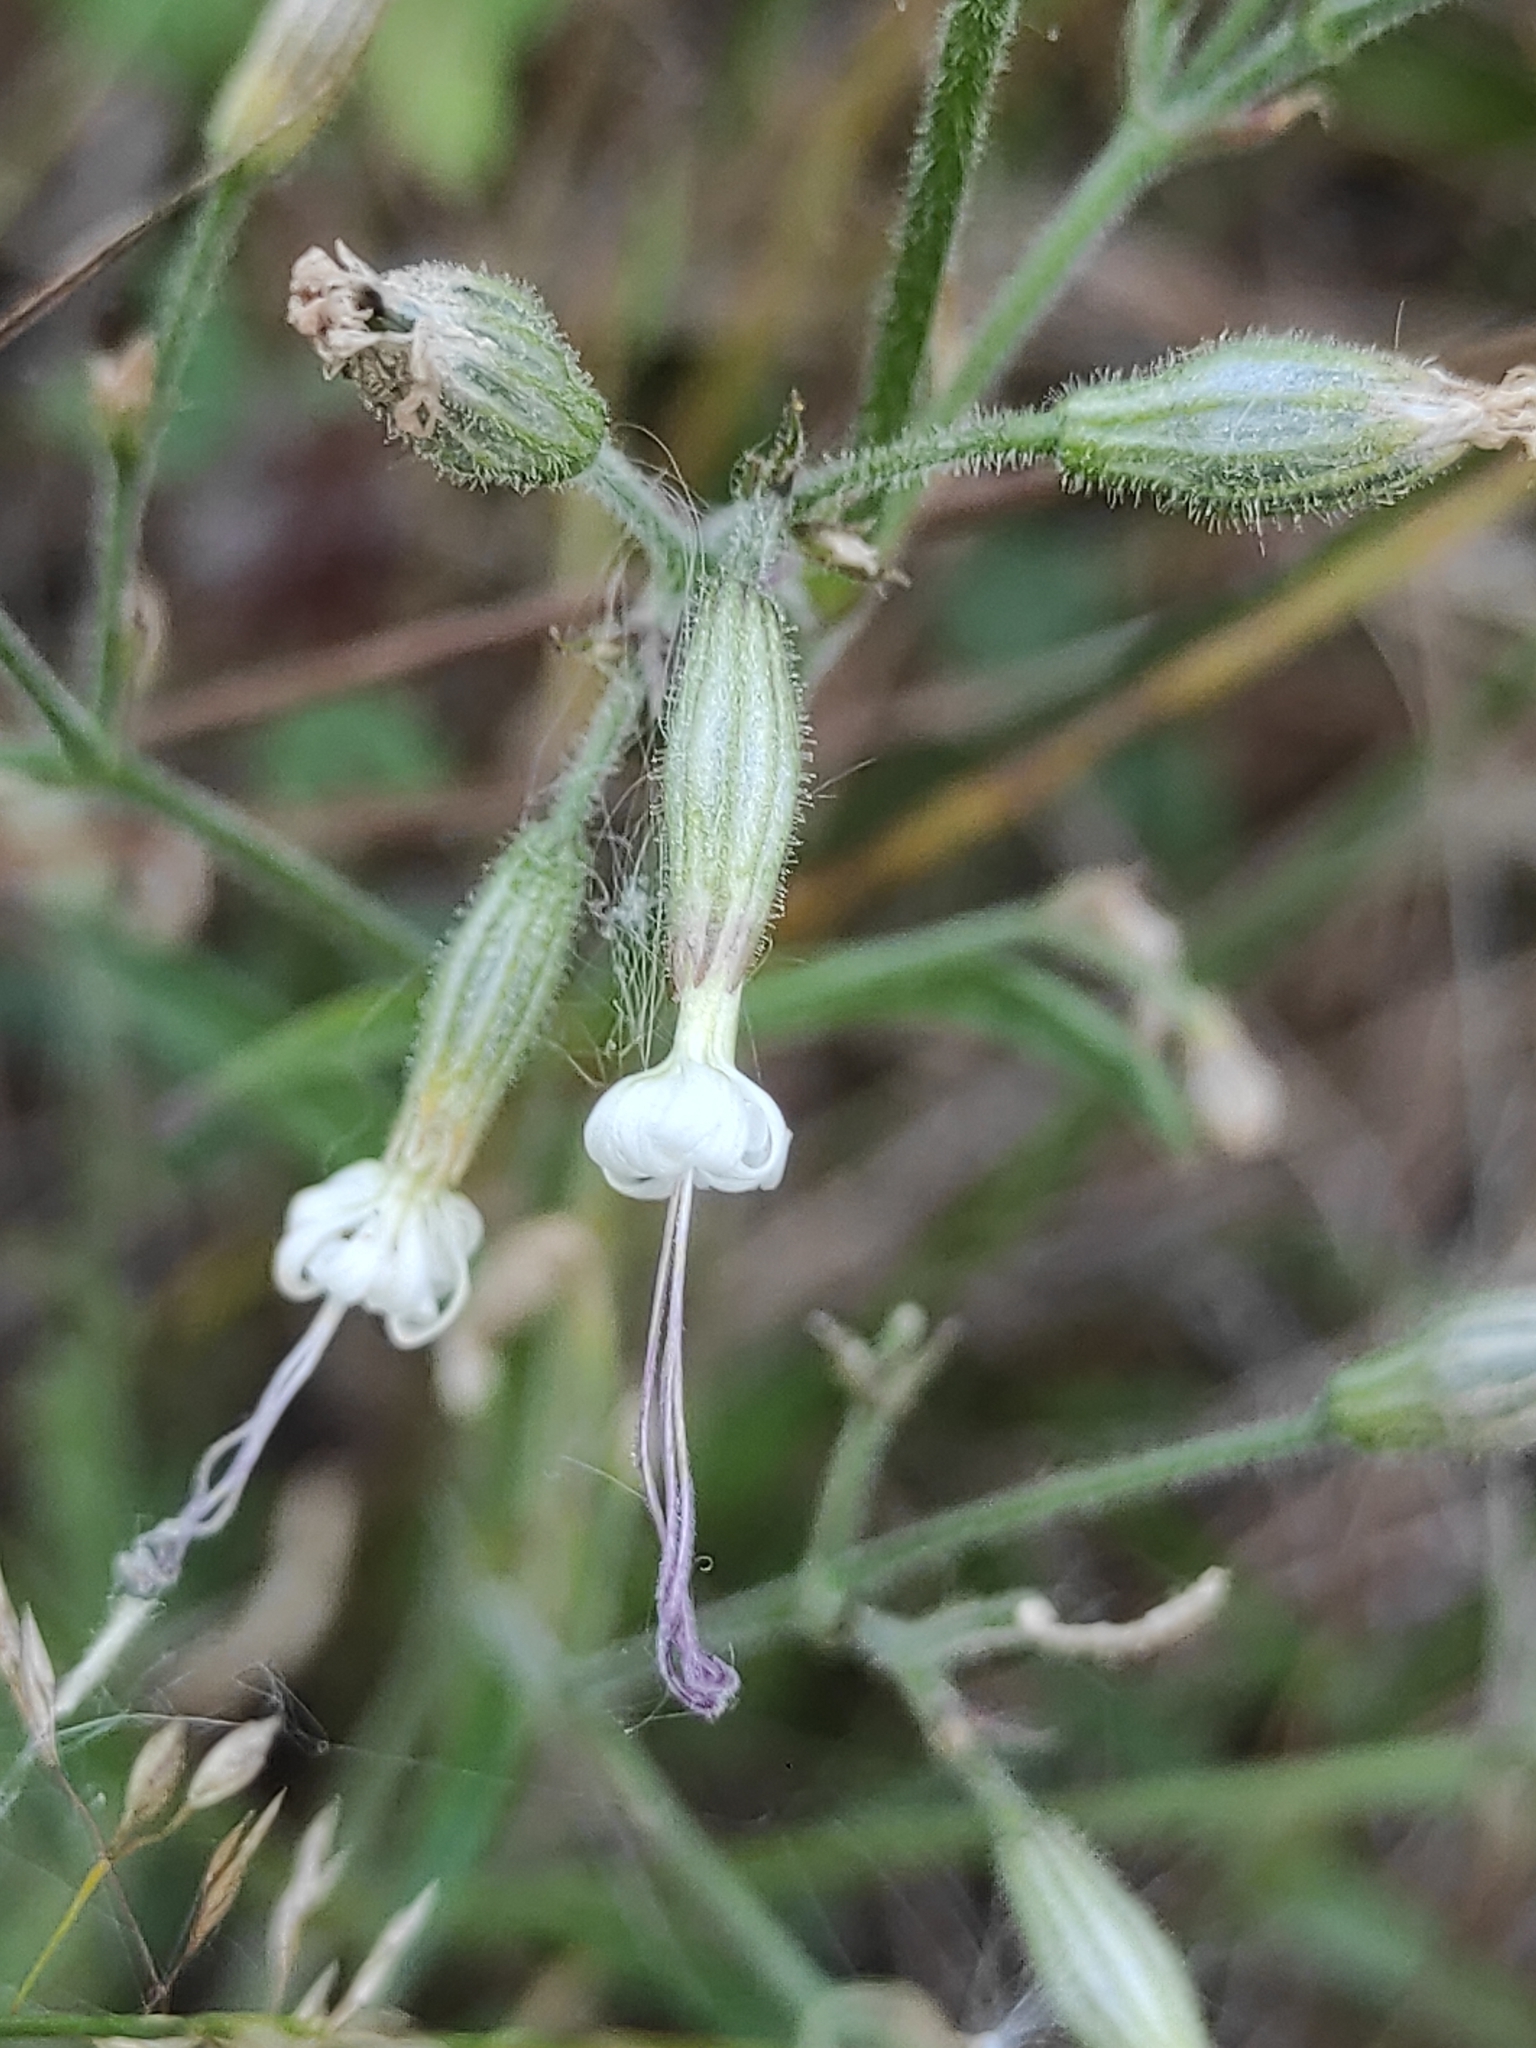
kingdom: Plantae
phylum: Tracheophyta
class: Magnoliopsida
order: Caryophyllales
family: Caryophyllaceae
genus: Silene
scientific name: Silene nutans
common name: Nottingham catchfly
